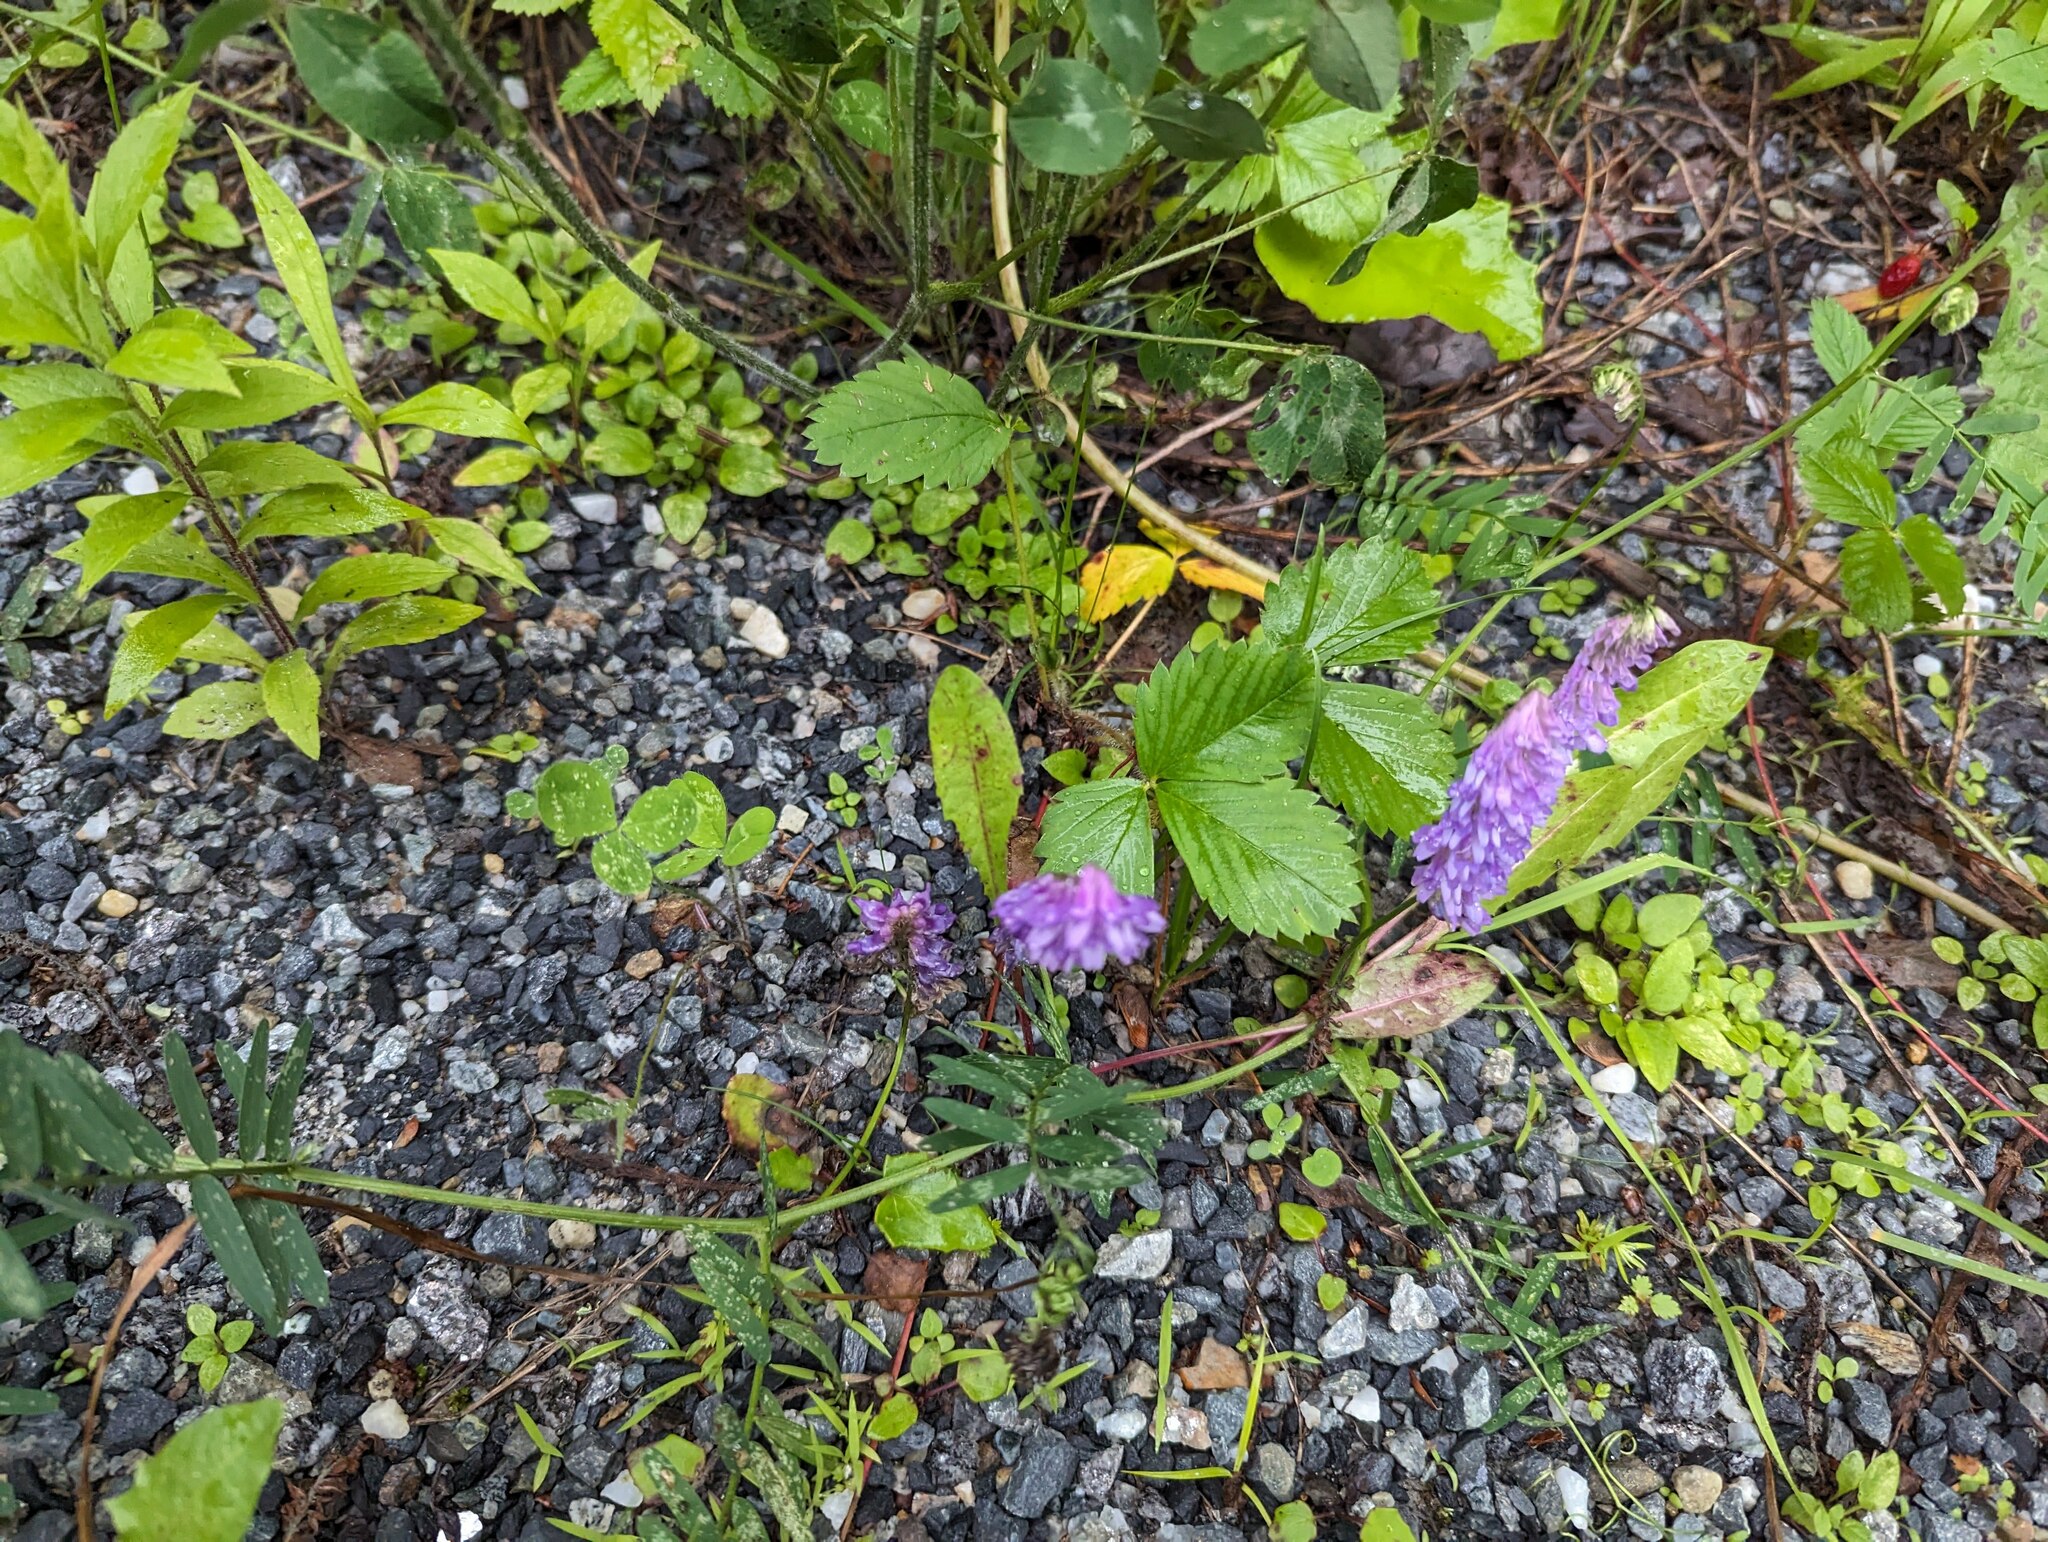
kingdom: Plantae
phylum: Tracheophyta
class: Magnoliopsida
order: Fabales
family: Fabaceae
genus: Vicia
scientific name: Vicia cracca
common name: Bird vetch
